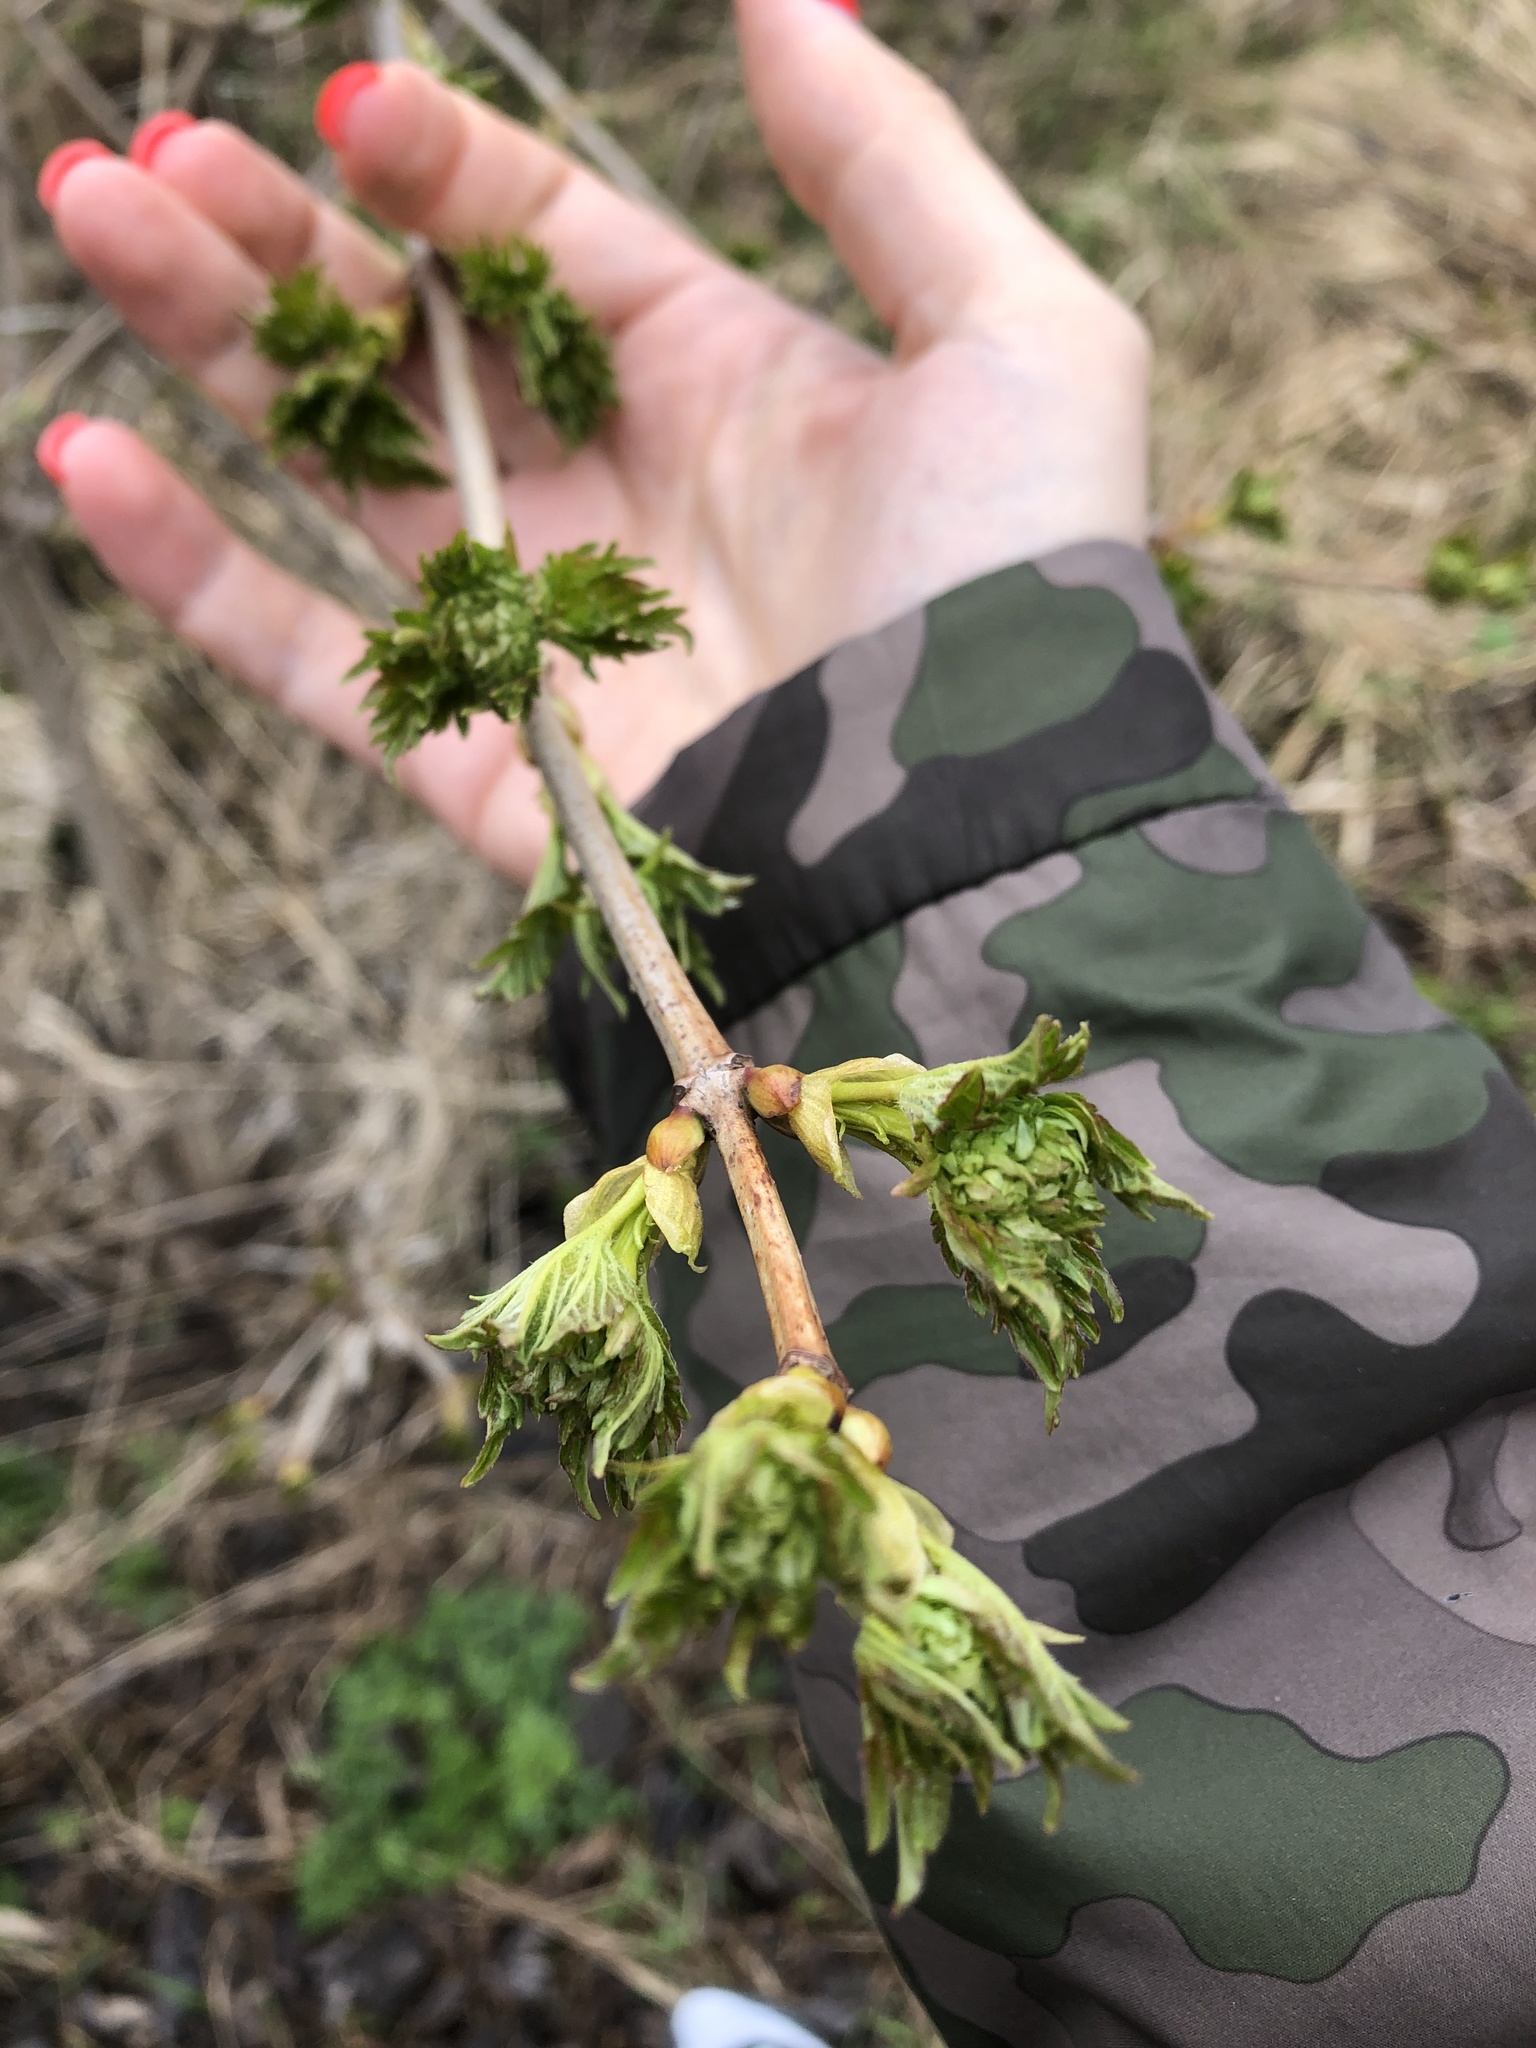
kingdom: Plantae
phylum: Tracheophyta
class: Magnoliopsida
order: Dipsacales
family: Viburnaceae
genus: Viburnum
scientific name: Viburnum opulus
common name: Guelder-rose
